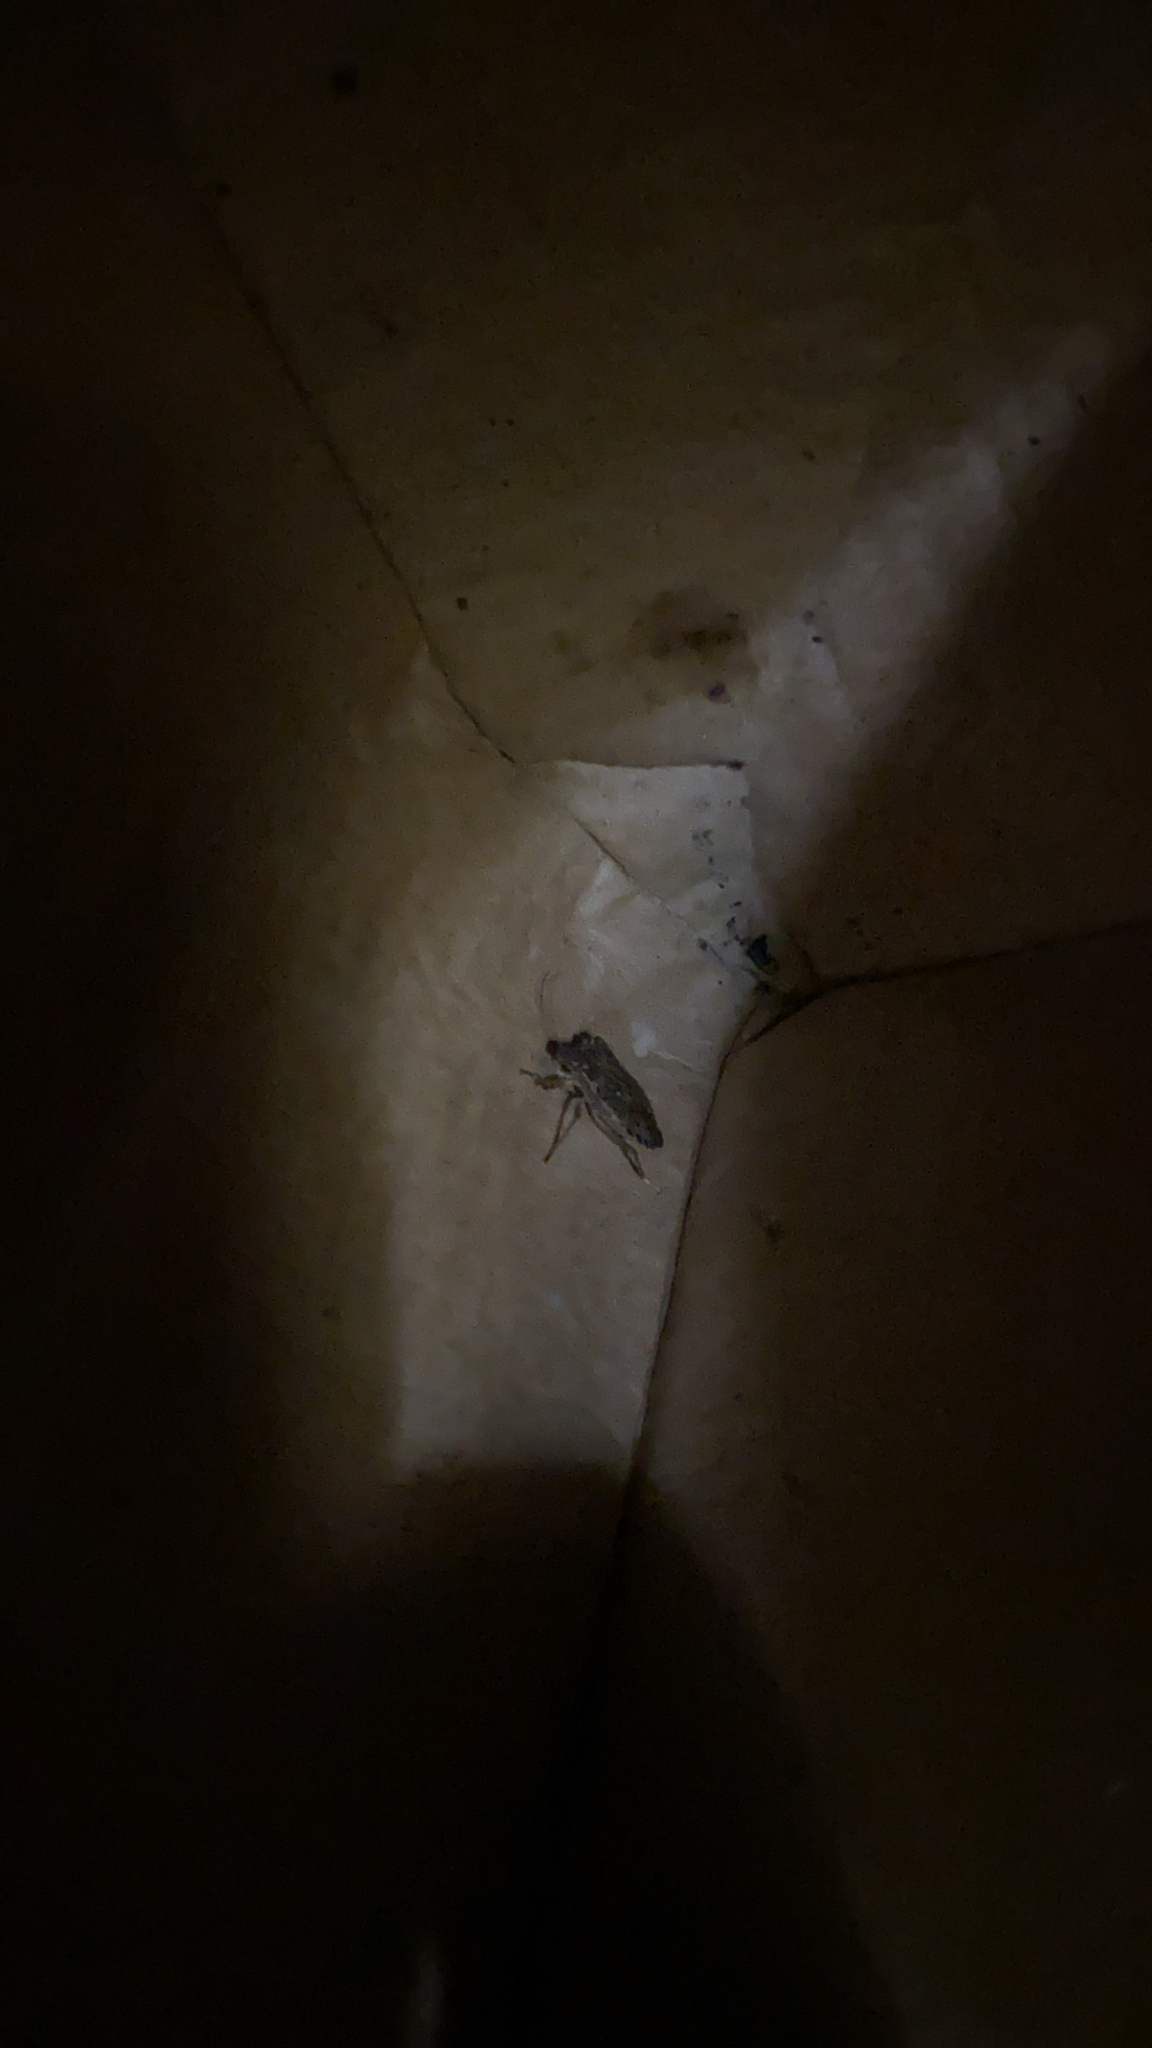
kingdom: Animalia
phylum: Arthropoda
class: Insecta
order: Hemiptera
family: Pentatomidae
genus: Halyomorpha
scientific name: Halyomorpha halys
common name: Brown marmorated stink bug
